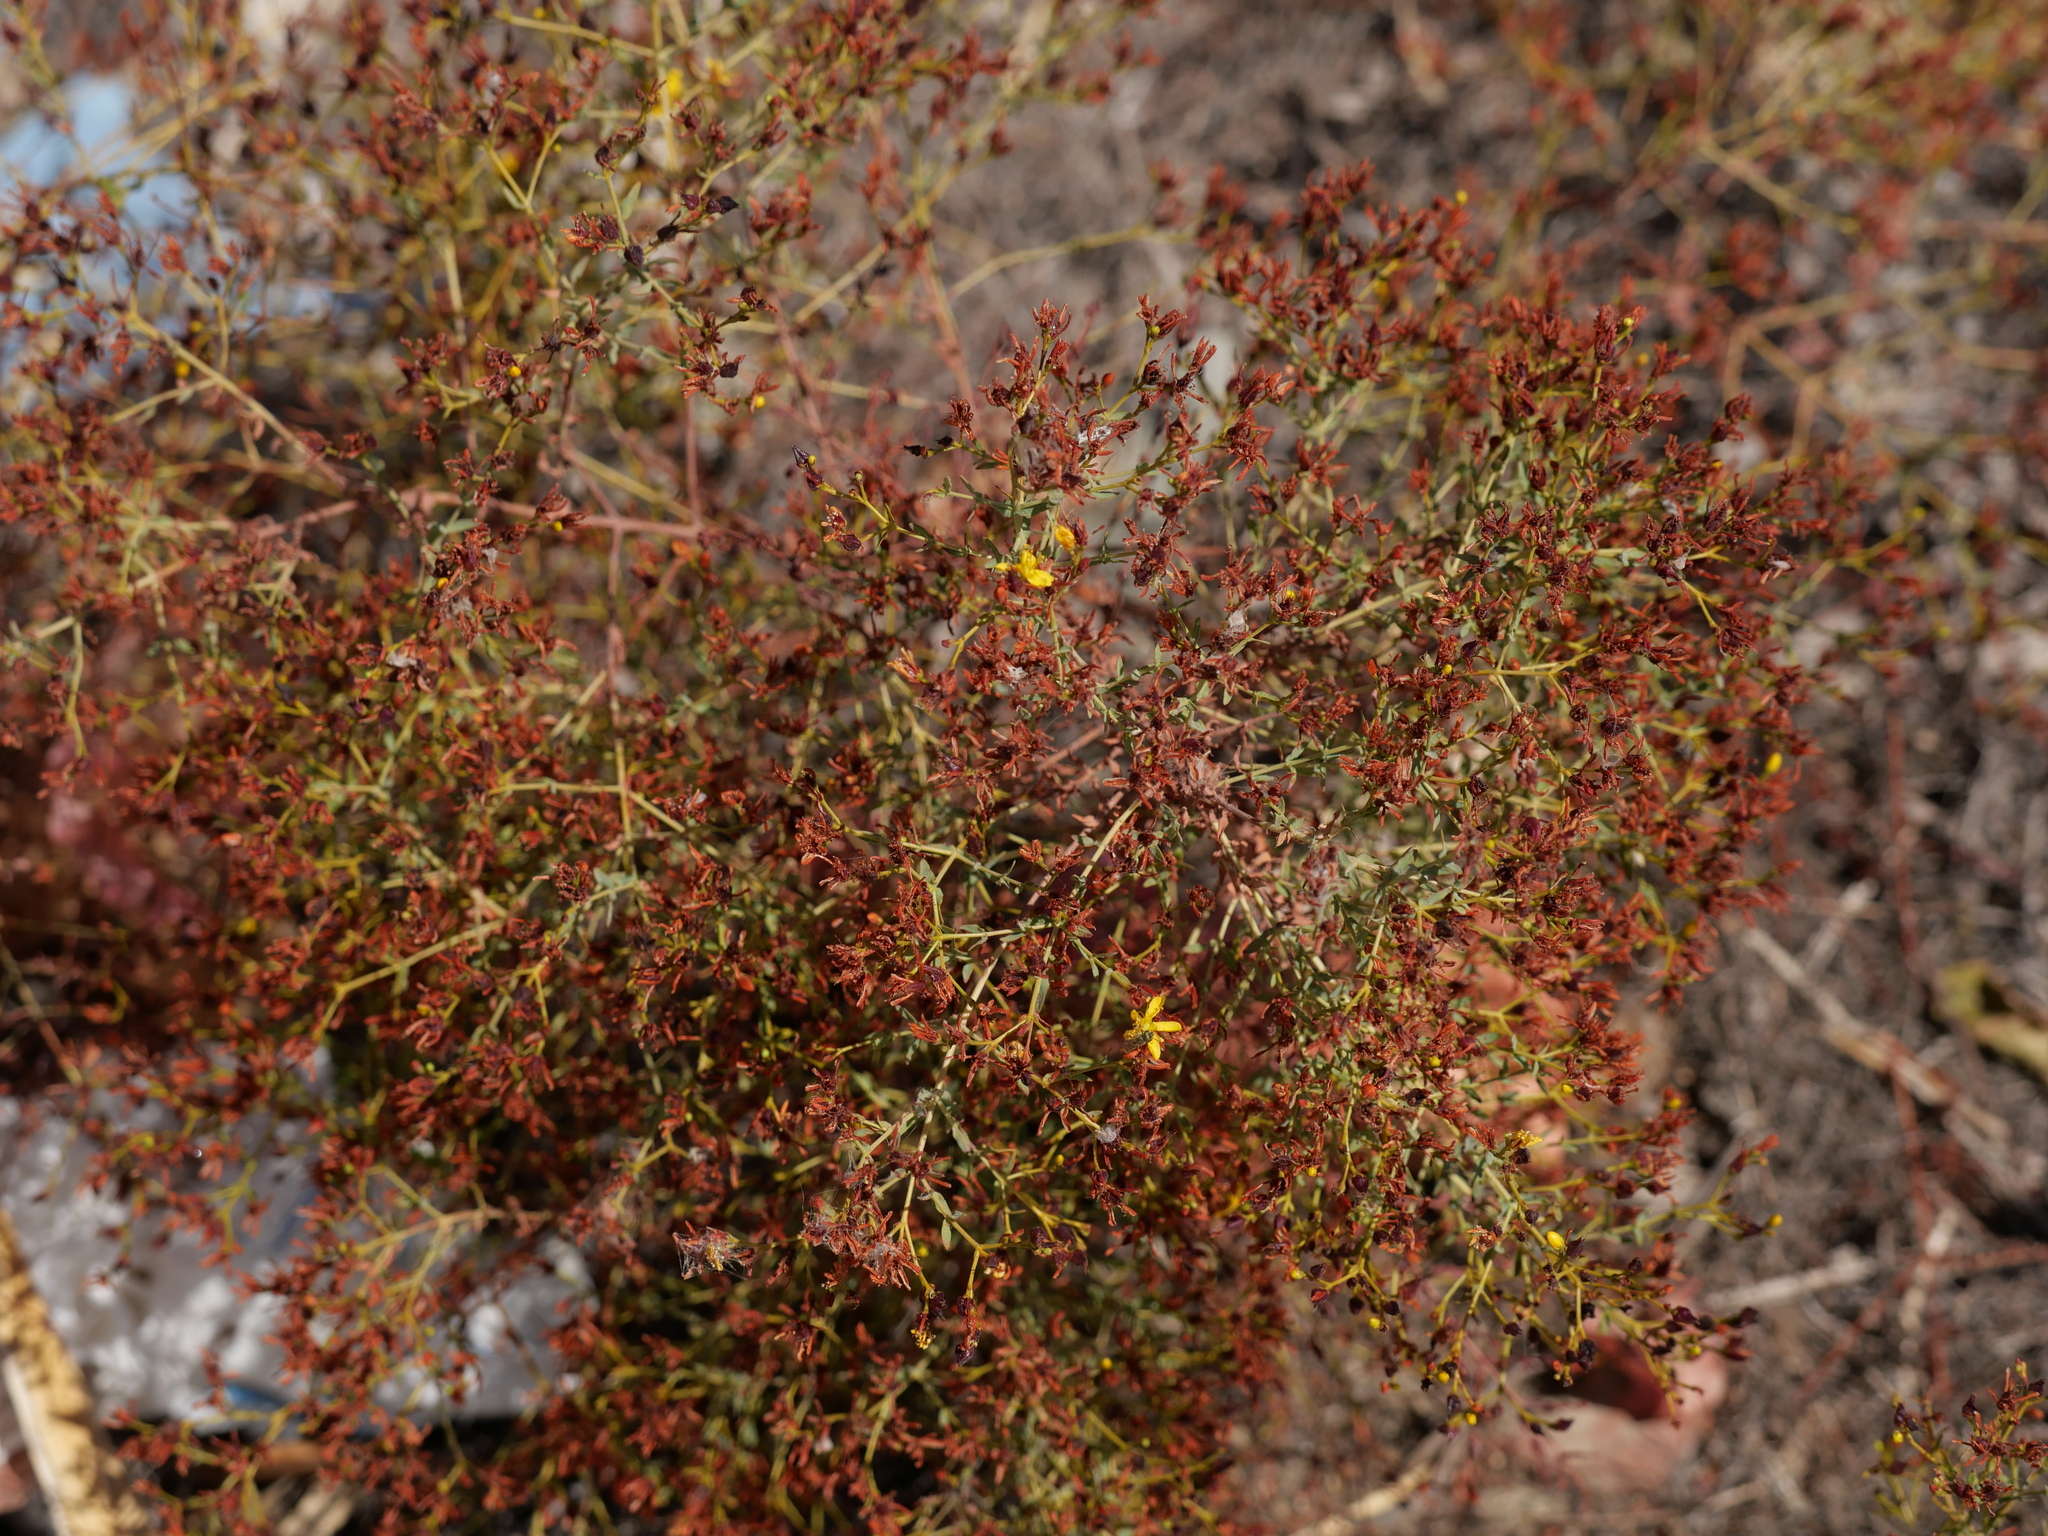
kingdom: Plantae
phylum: Tracheophyta
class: Magnoliopsida
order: Malpighiales
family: Hypericaceae
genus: Hypericum
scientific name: Hypericum triquetrifolium
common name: Tangled hypericum
